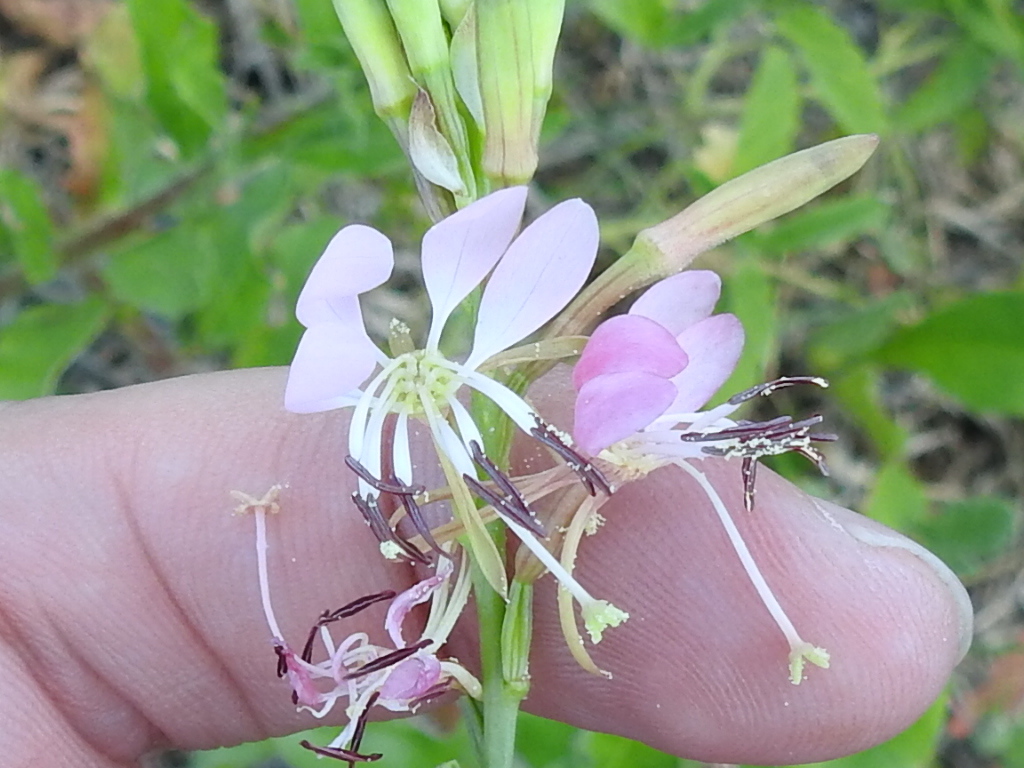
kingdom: Plantae
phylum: Tracheophyta
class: Magnoliopsida
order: Myrtales
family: Onagraceae
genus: Oenothera
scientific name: Oenothera suffulta
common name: Kisses
